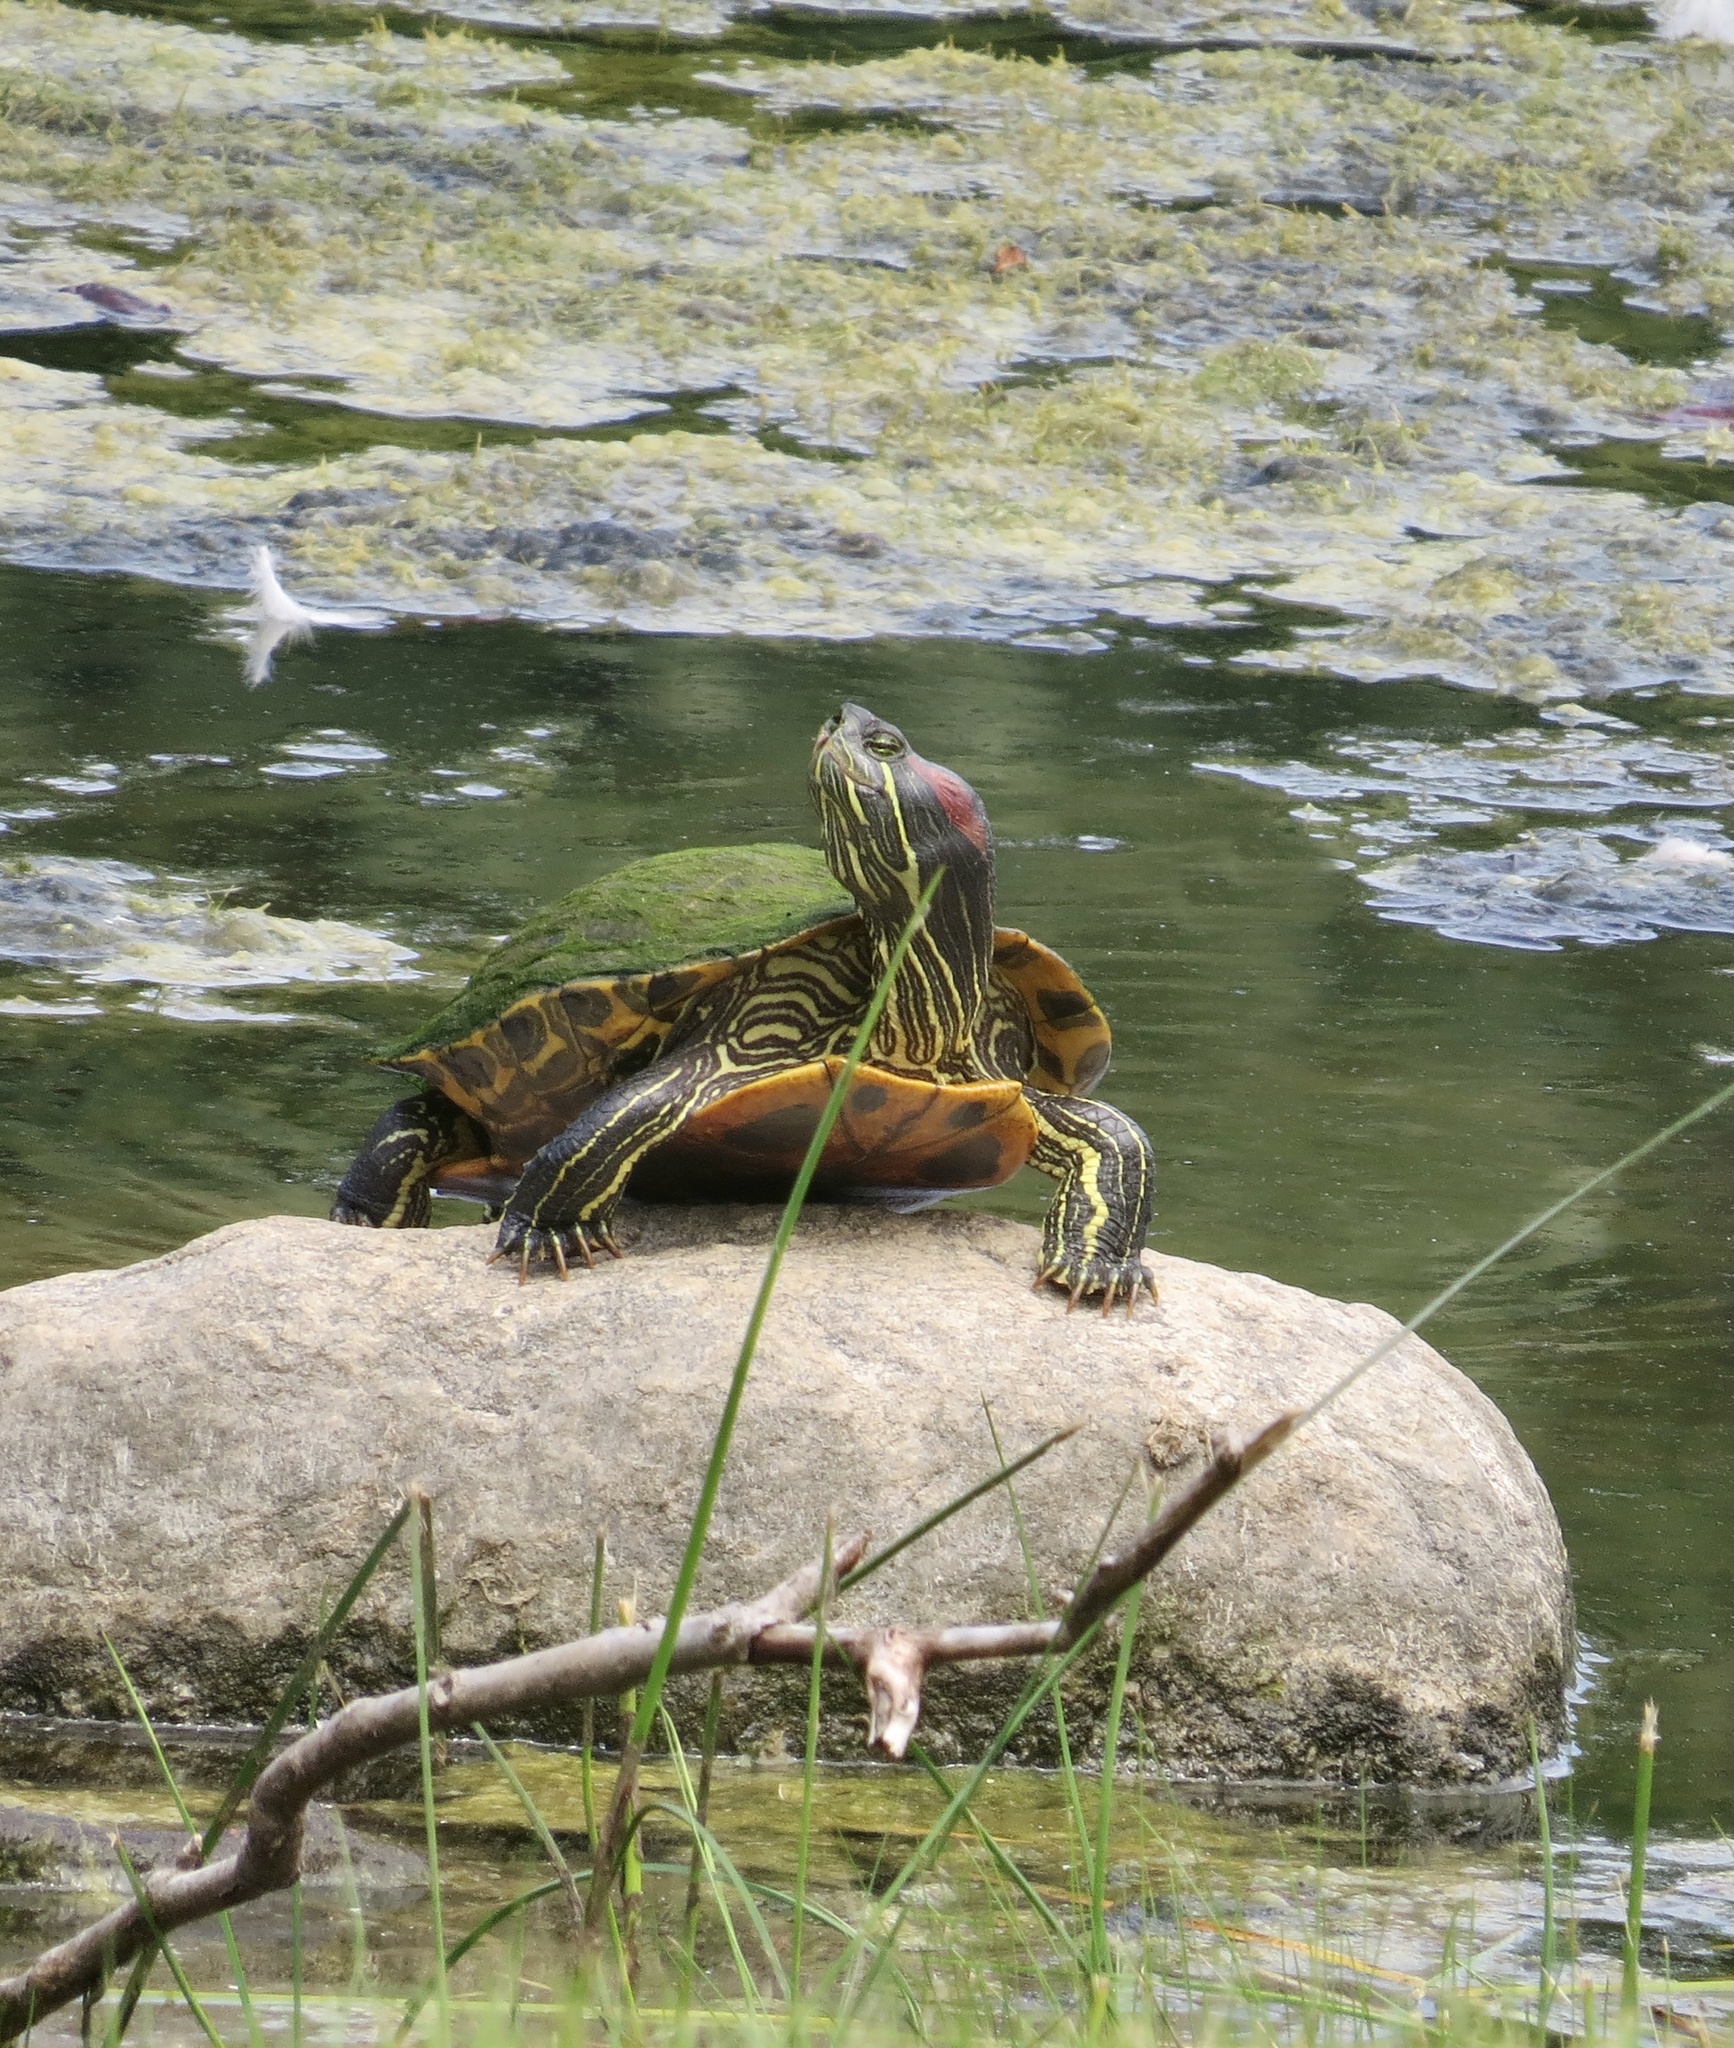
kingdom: Animalia
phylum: Chordata
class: Testudines
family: Emydidae
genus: Trachemys
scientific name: Trachemys scripta
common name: Slider
